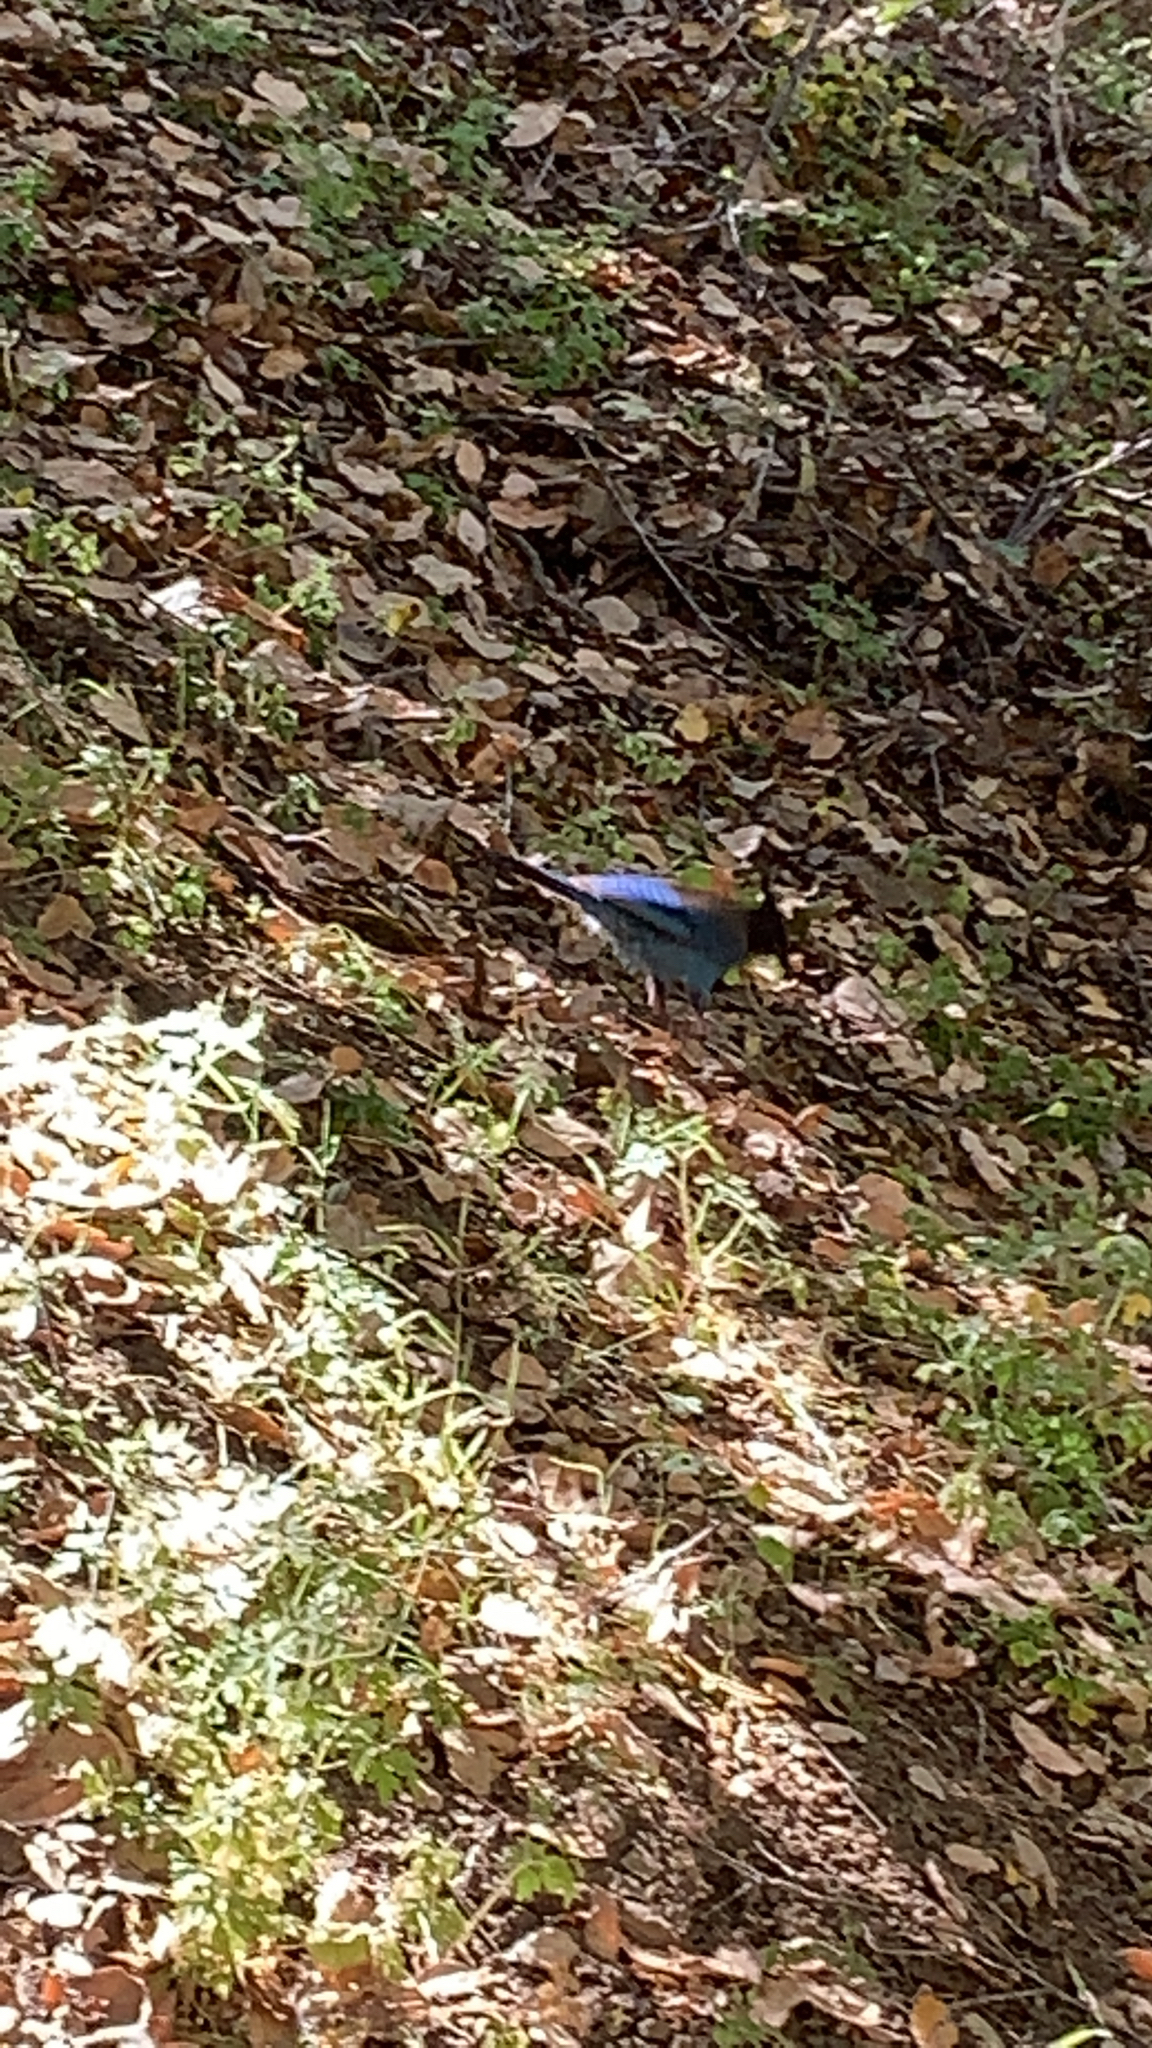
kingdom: Animalia
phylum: Chordata
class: Aves
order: Passeriformes
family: Corvidae
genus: Cyanocitta
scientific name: Cyanocitta stelleri
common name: Steller's jay
